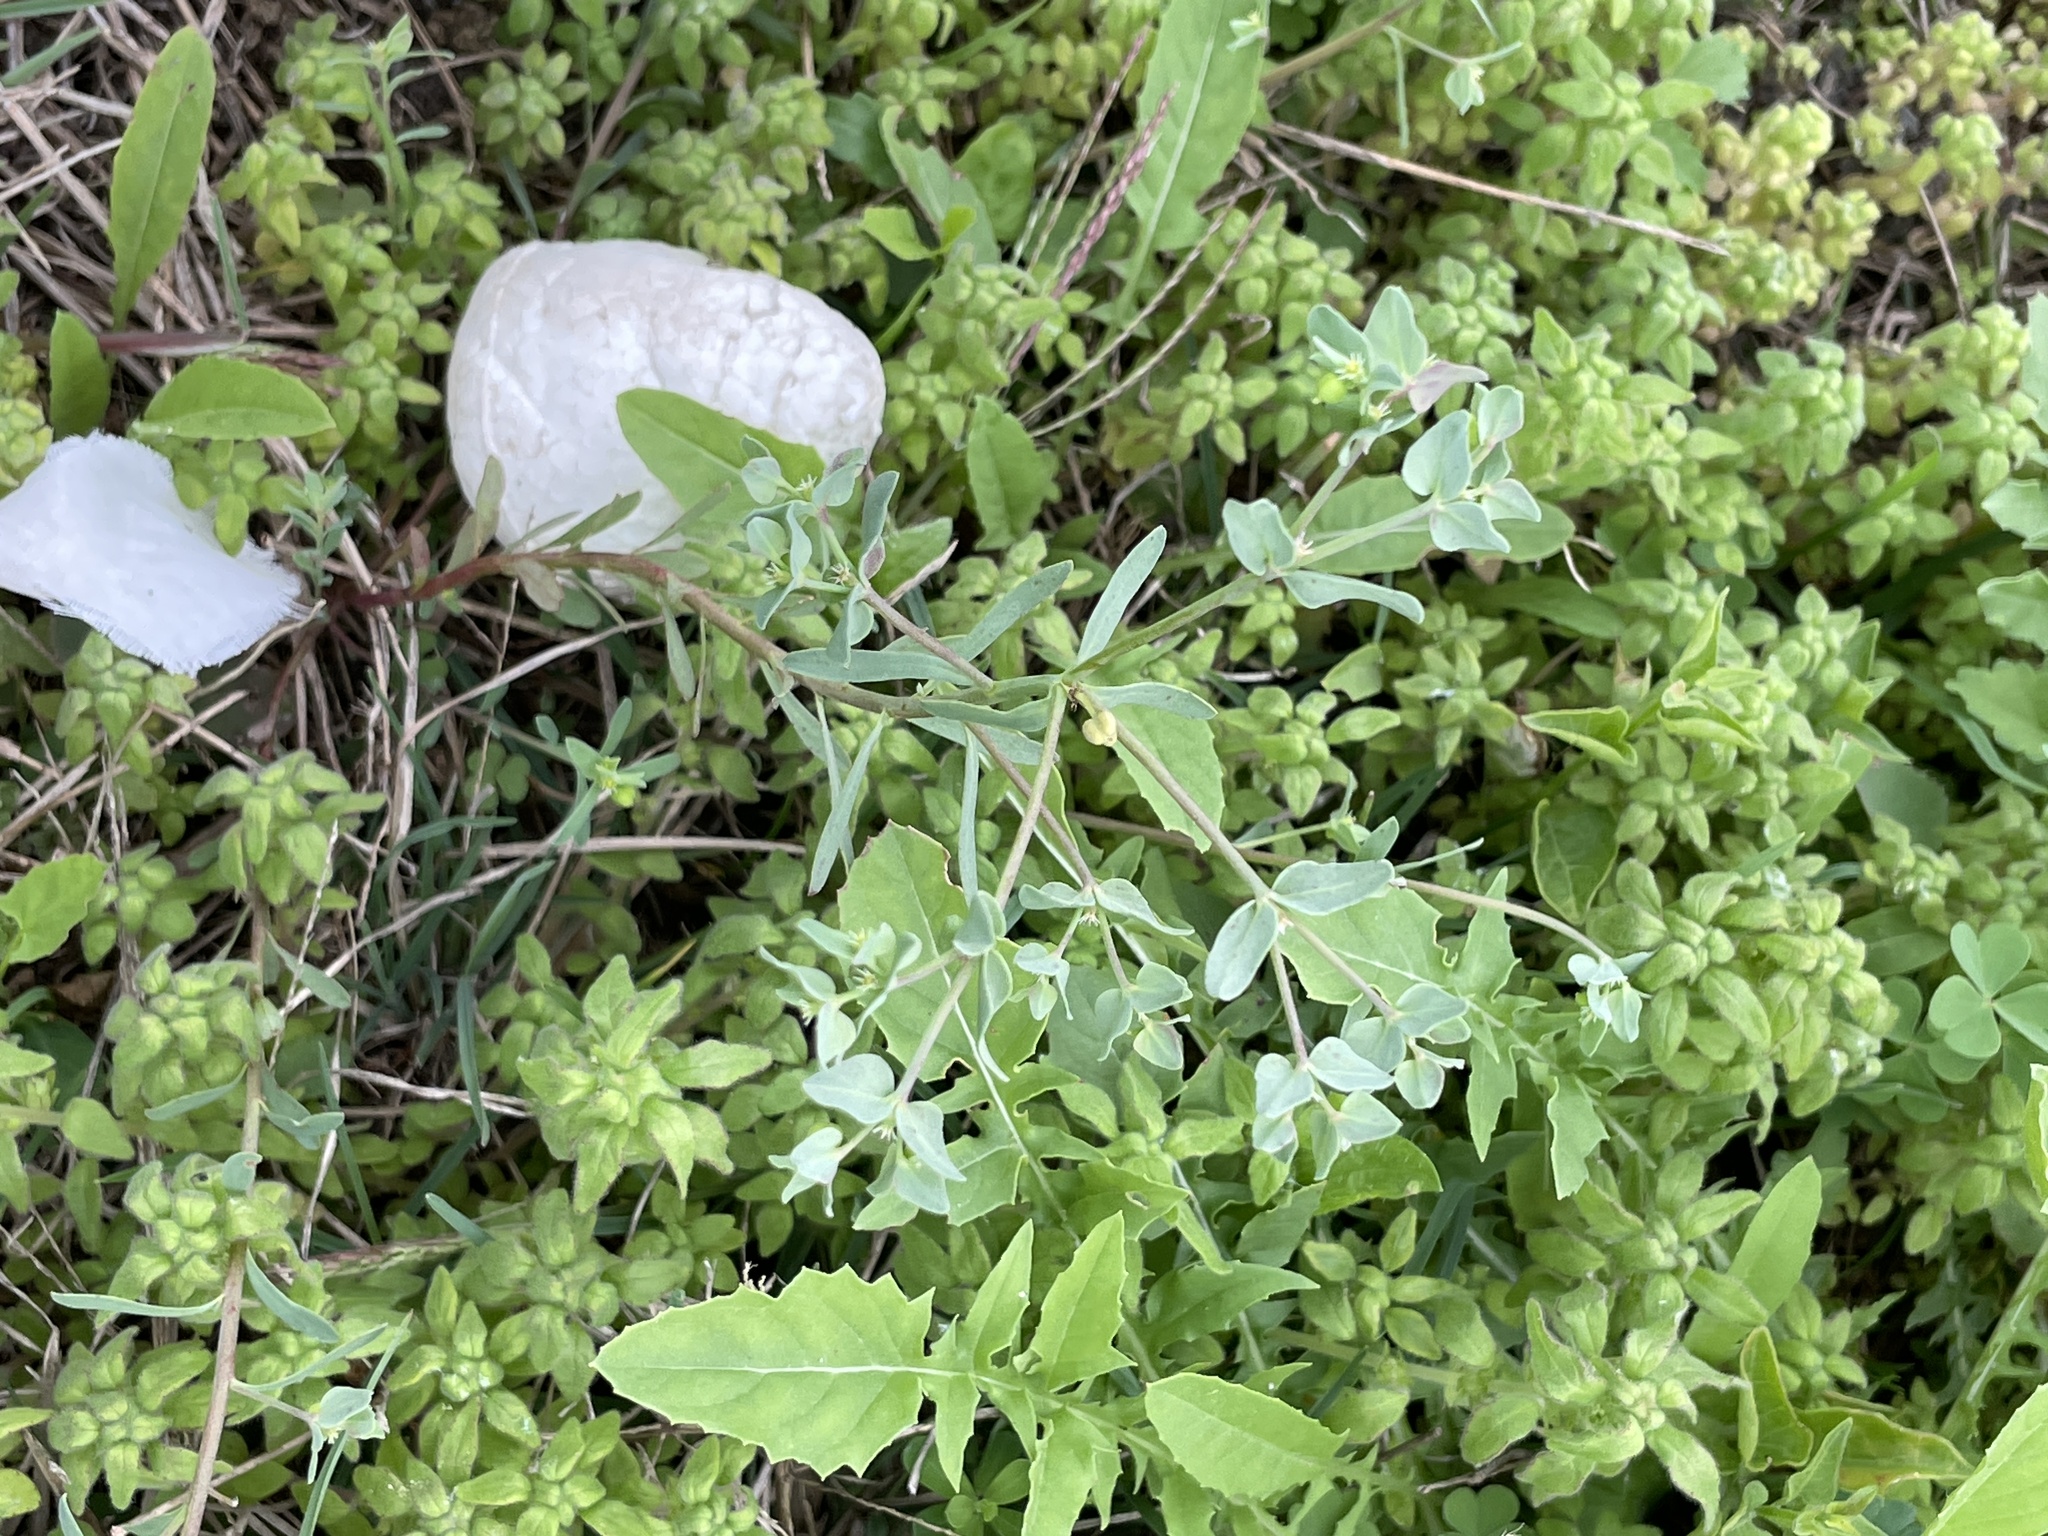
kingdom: Plantae
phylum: Tracheophyta
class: Magnoliopsida
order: Malpighiales
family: Euphorbiaceae
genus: Euphorbia
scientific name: Euphorbia peplidion
